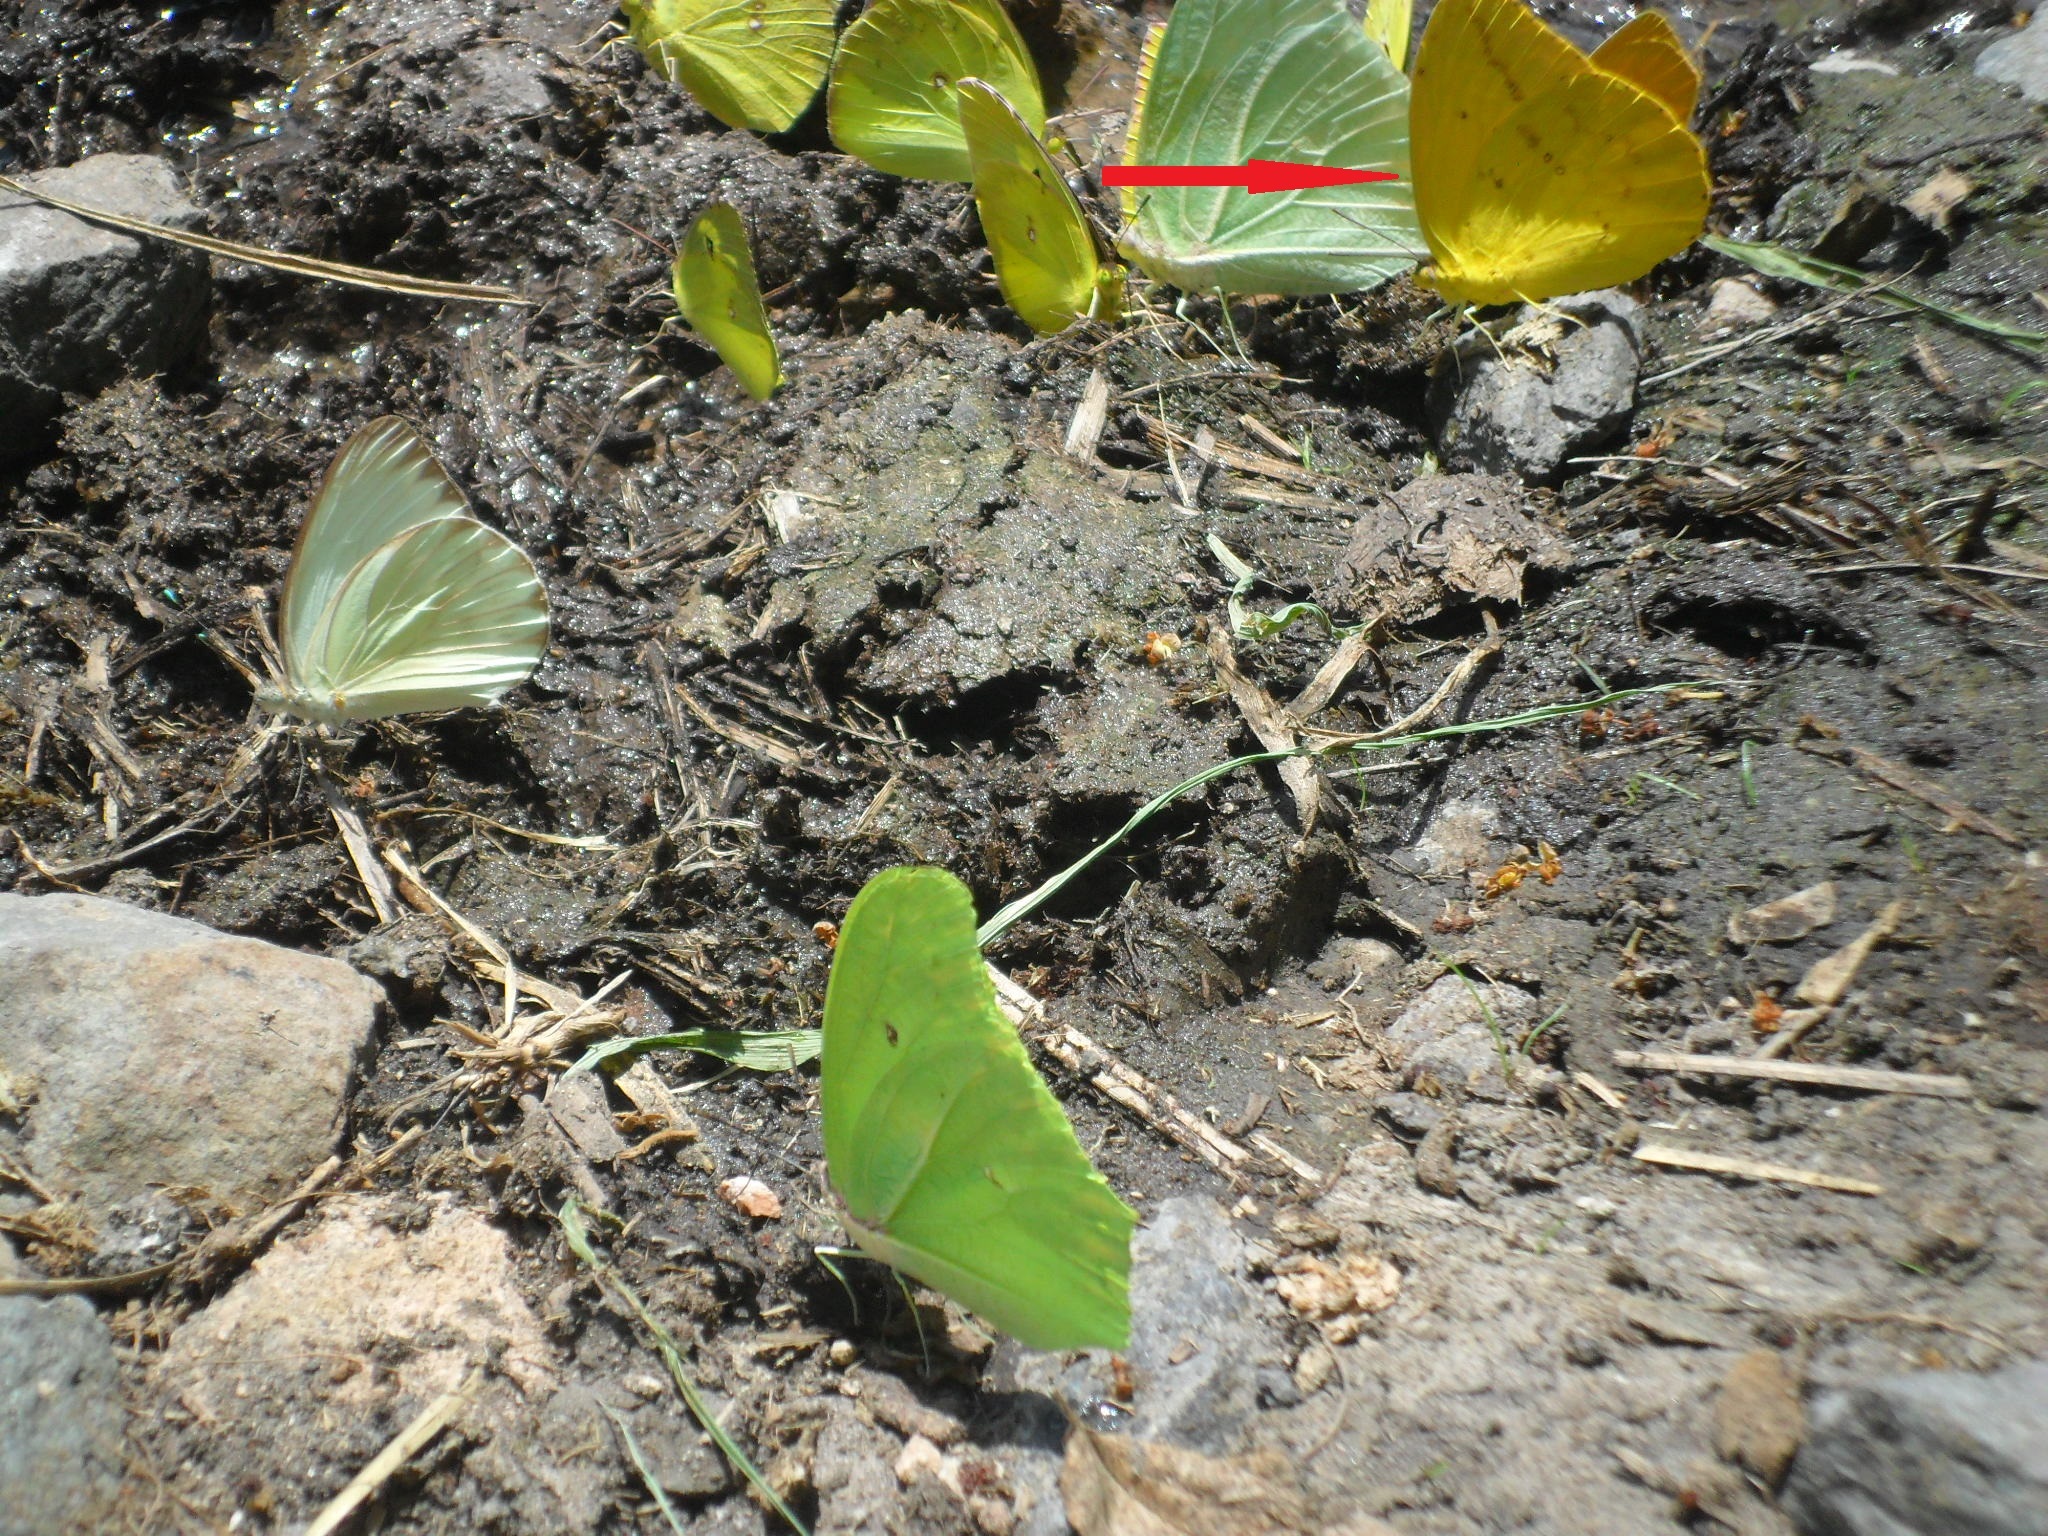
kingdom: Animalia
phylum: Arthropoda
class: Insecta
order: Lepidoptera
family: Pieridae
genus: Phoebis
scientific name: Phoebis agarithe
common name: Large orange sulphur
